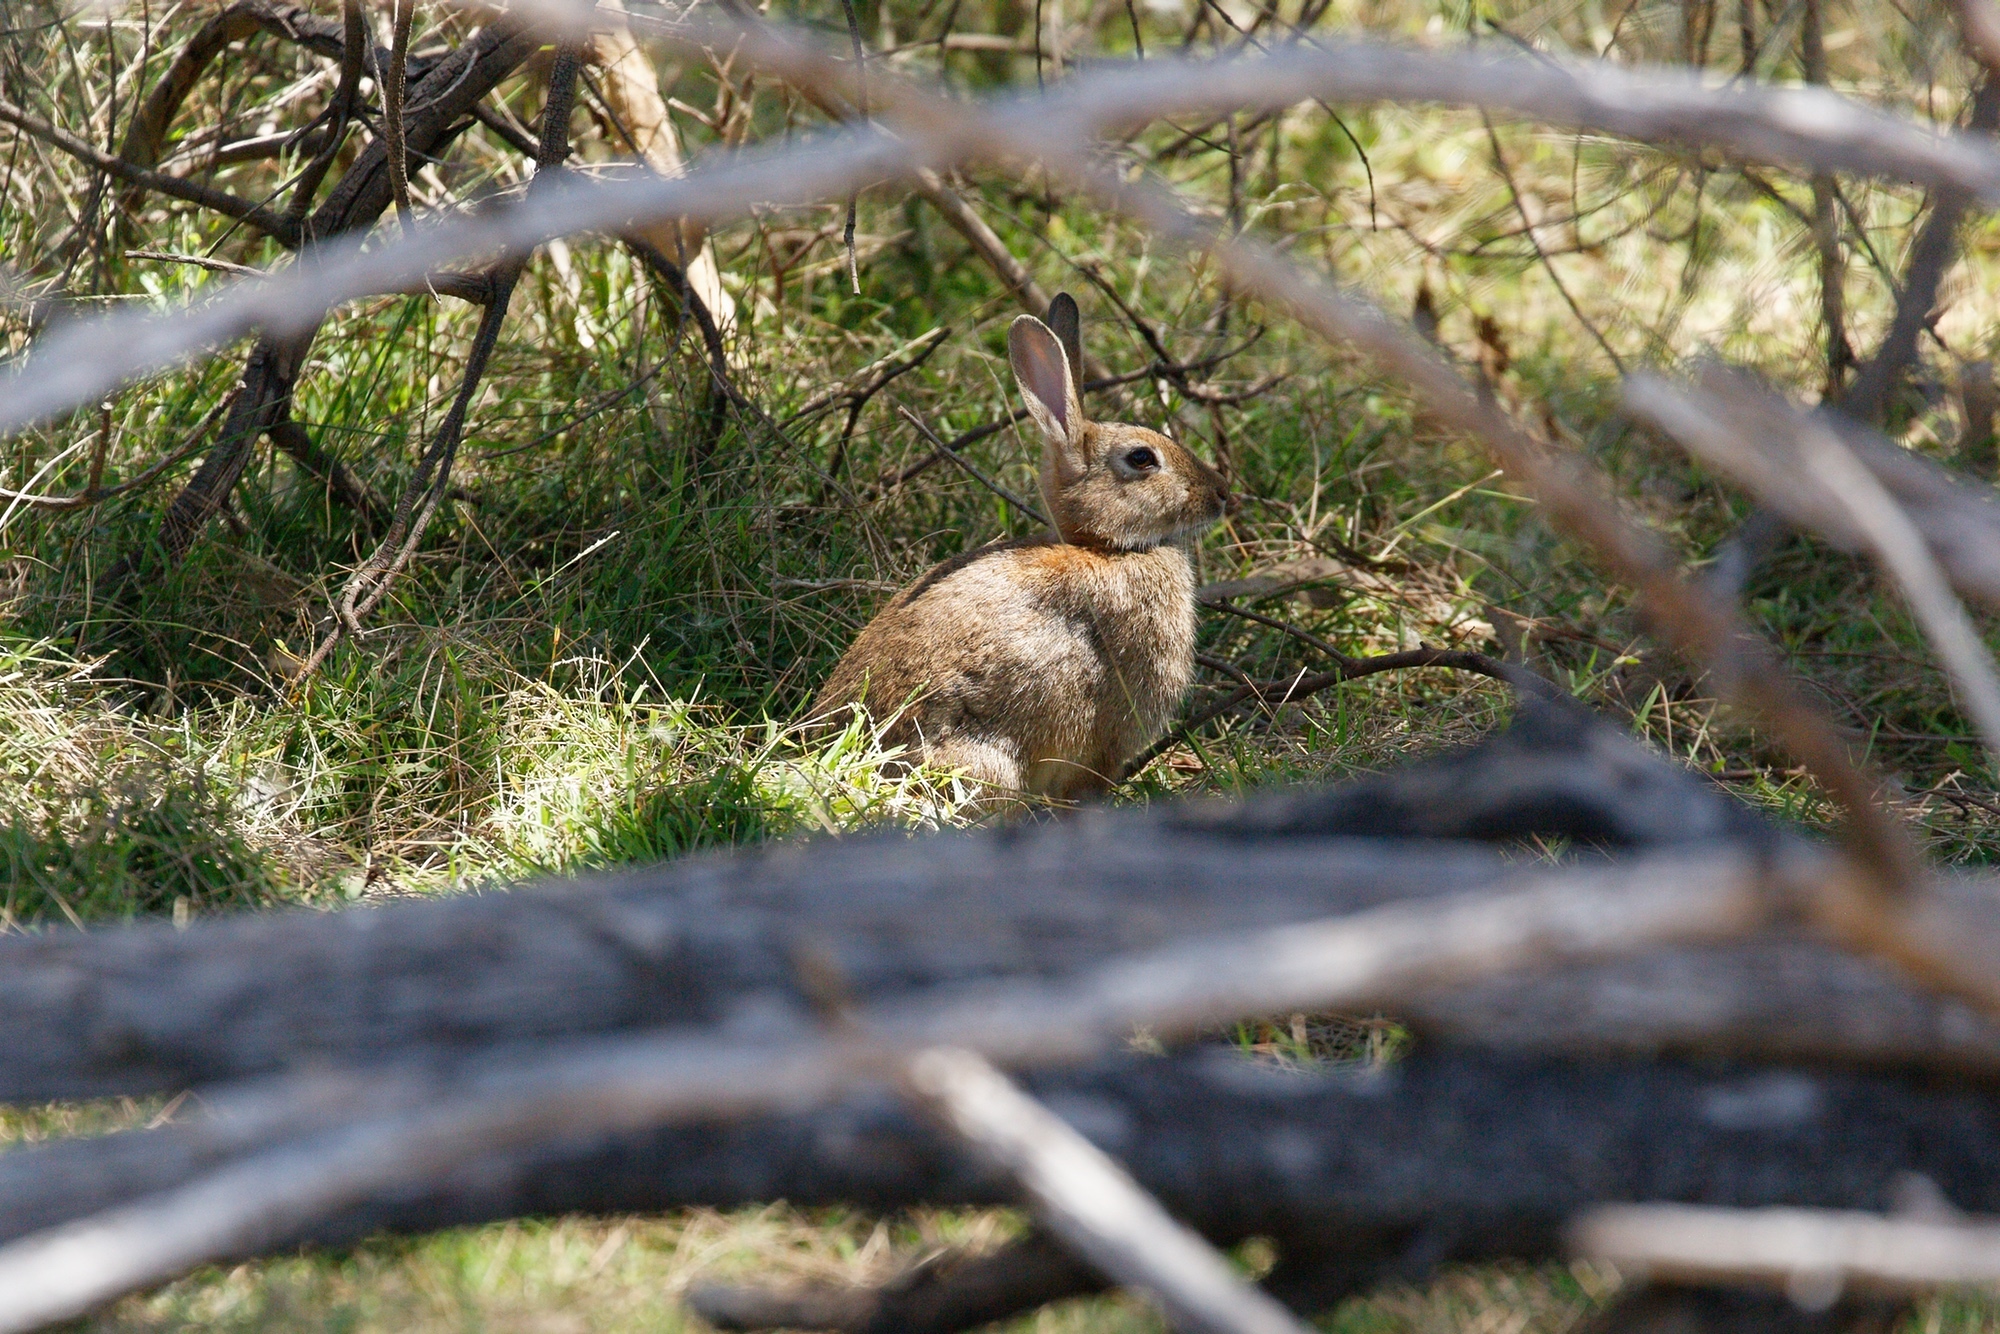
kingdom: Animalia
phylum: Chordata
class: Mammalia
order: Lagomorpha
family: Leporidae
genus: Oryctolagus
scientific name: Oryctolagus cuniculus
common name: European rabbit
